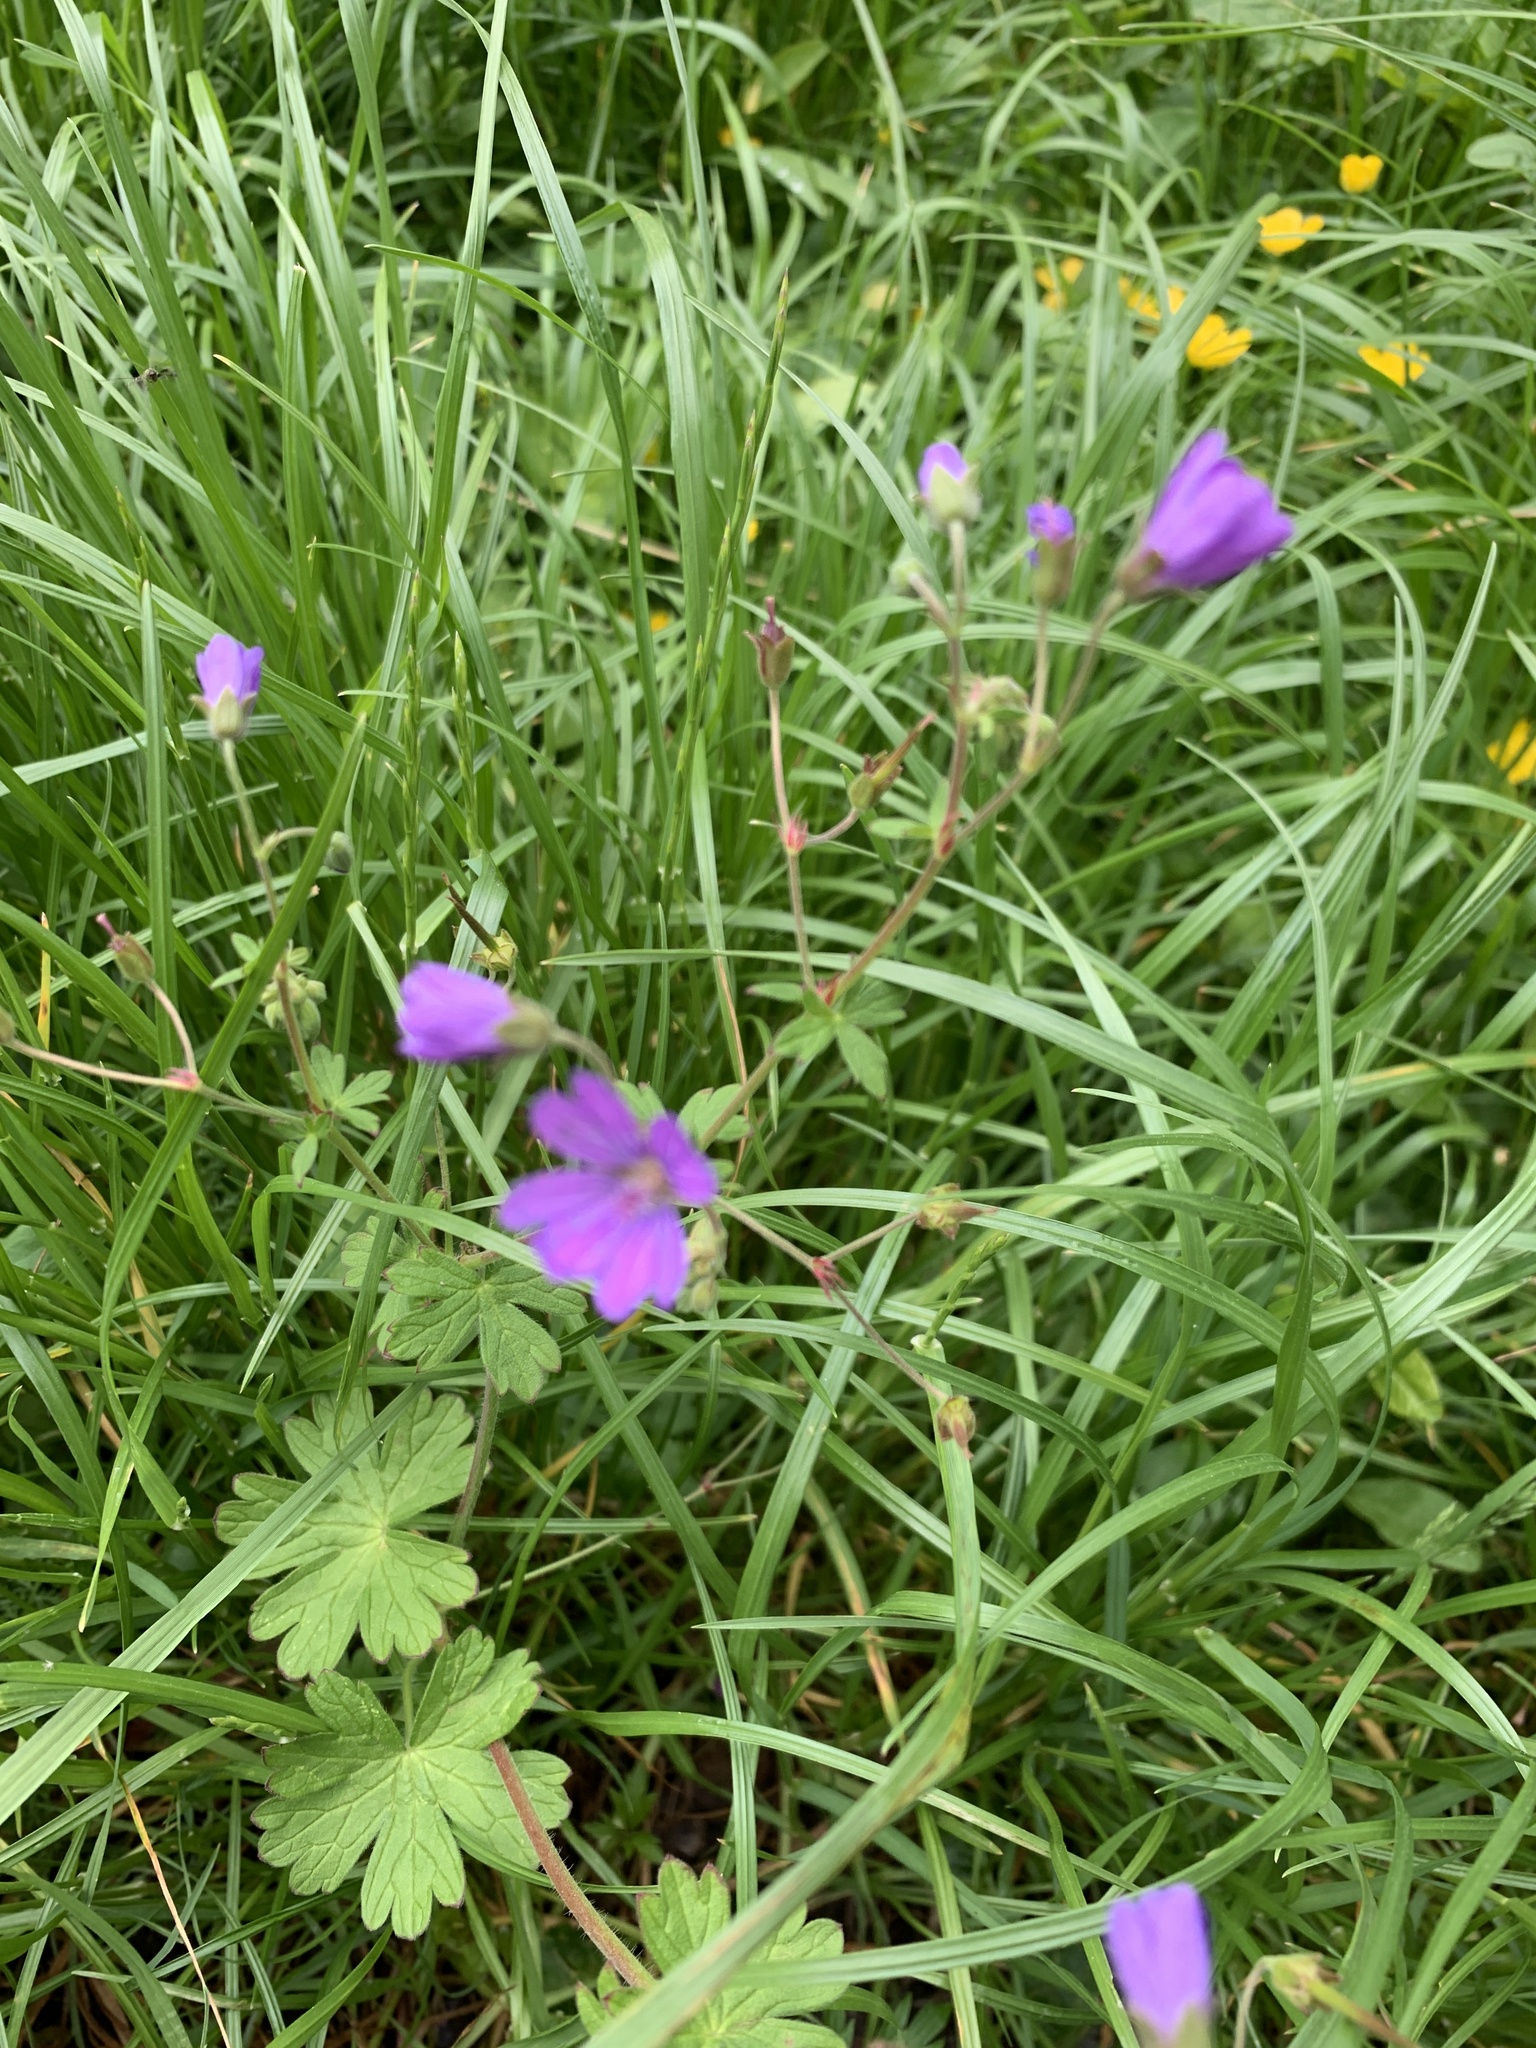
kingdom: Plantae
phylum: Tracheophyta
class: Magnoliopsida
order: Geraniales
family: Geraniaceae
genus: Geranium
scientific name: Geranium pyrenaicum
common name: Hedgerow crane's-bill
